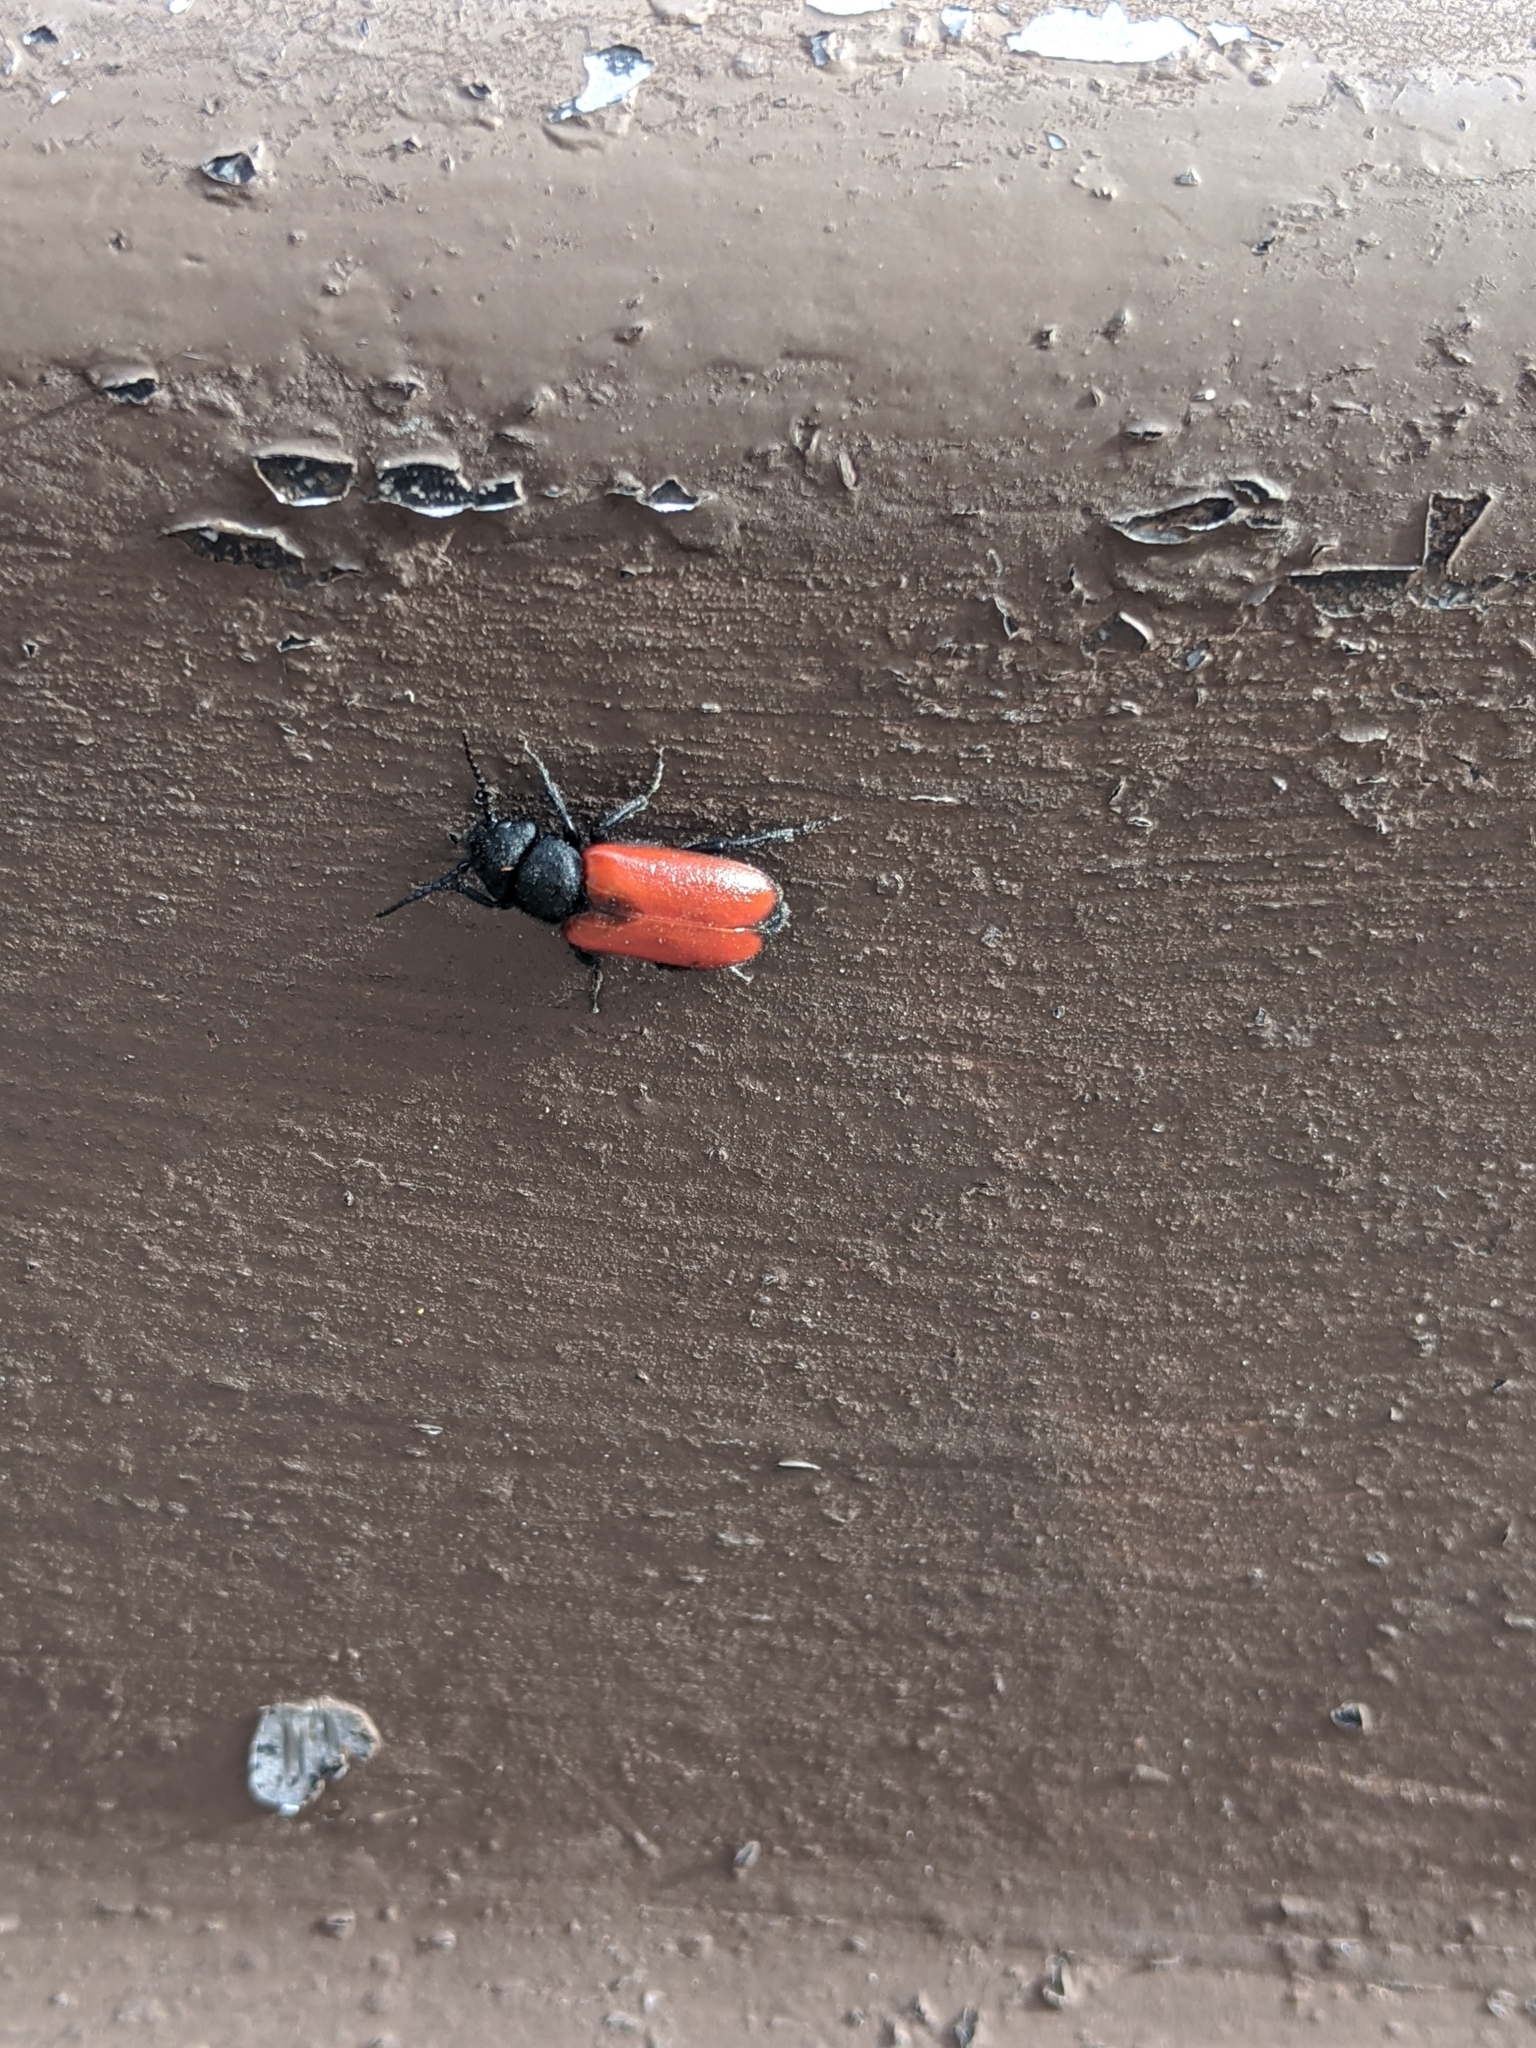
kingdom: Animalia
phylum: Arthropoda
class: Insecta
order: Coleoptera
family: Meloidae
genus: Tricrania
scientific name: Tricrania stansburii
